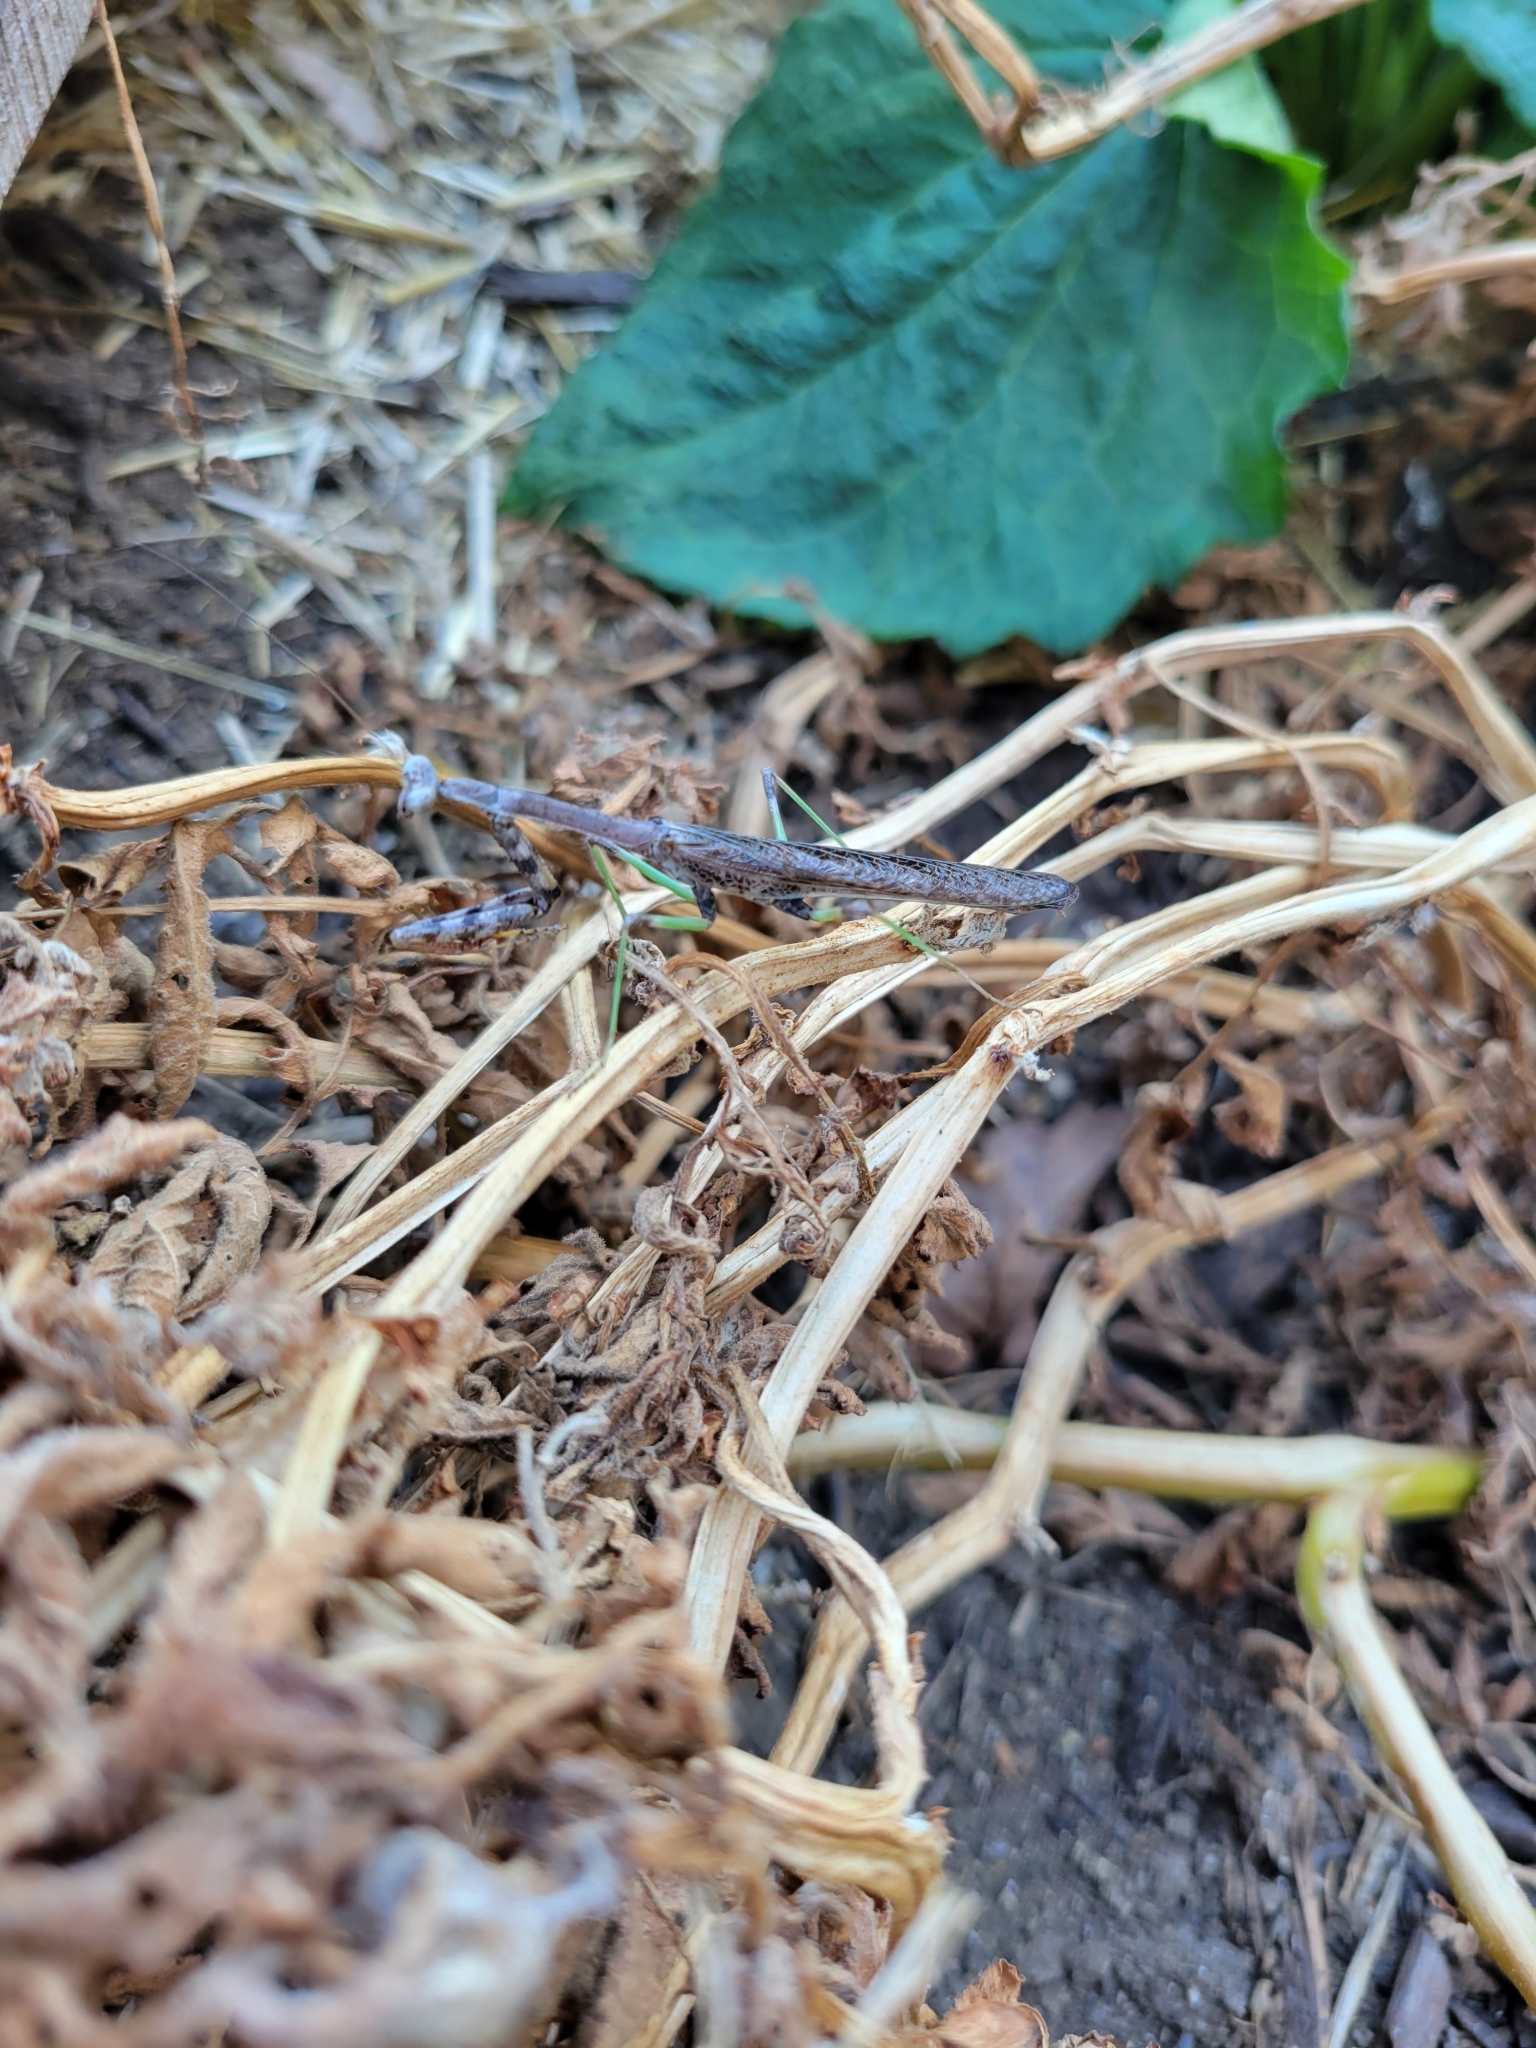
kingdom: Animalia
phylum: Arthropoda
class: Insecta
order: Mantodea
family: Mantidae
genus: Stagmomantis
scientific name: Stagmomantis carolina
